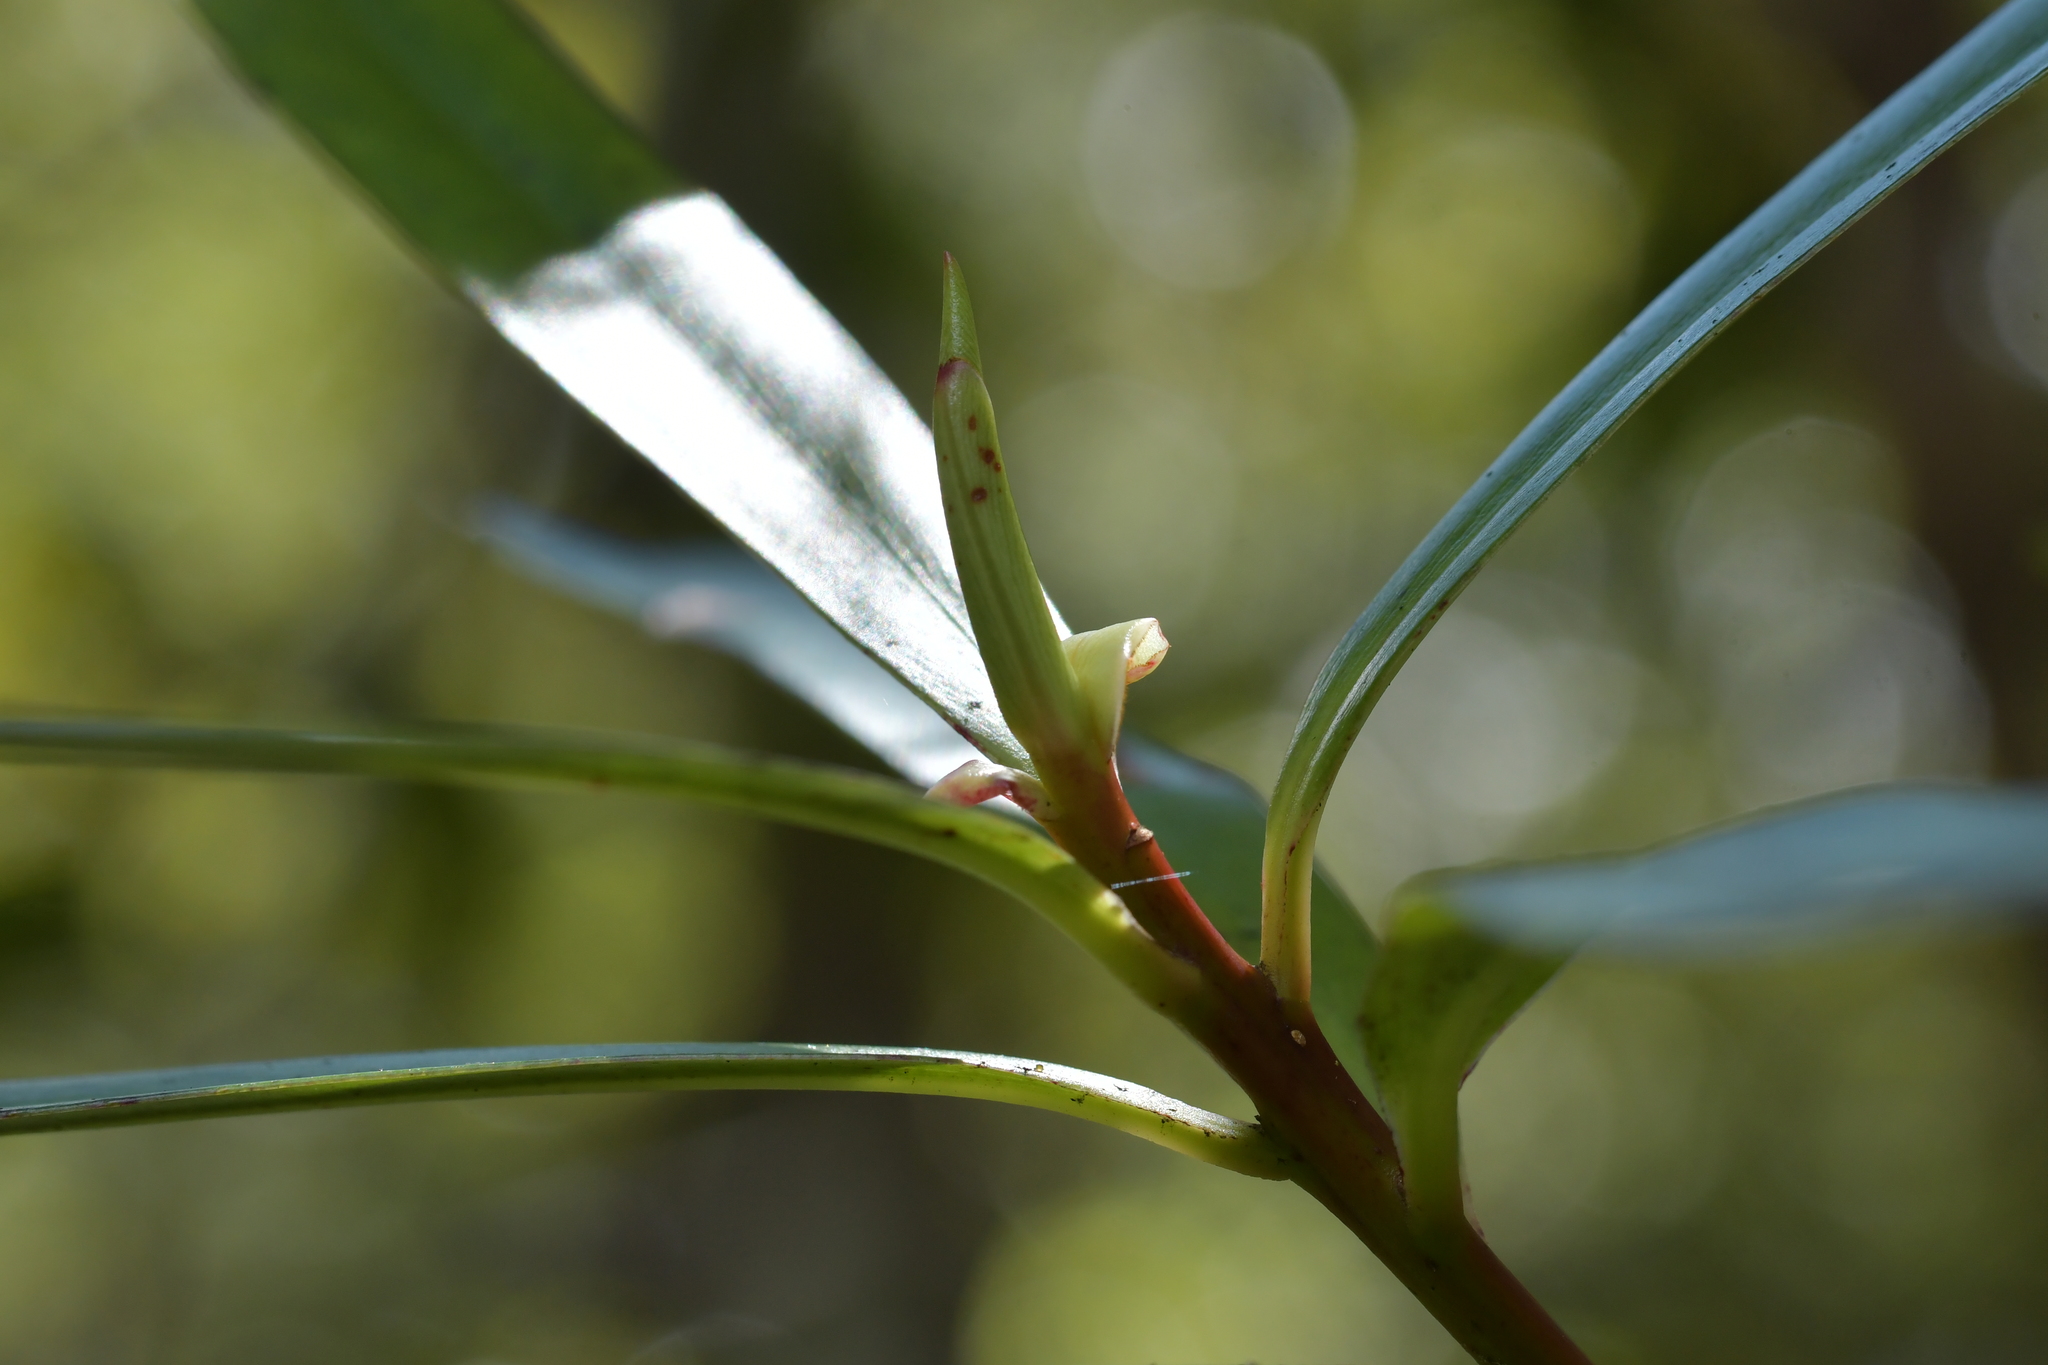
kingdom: Plantae
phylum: Tracheophyta
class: Magnoliopsida
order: Ericales
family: Primulaceae
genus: Myrsine
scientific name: Myrsine salicina
